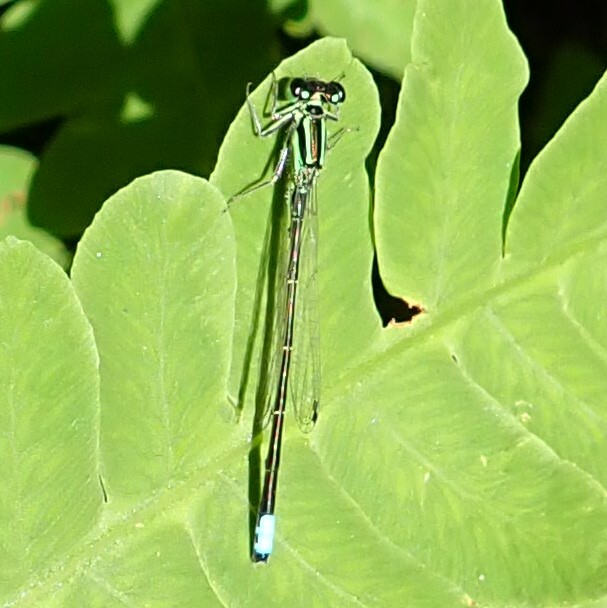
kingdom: Animalia
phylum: Arthropoda
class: Insecta
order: Odonata
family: Coenagrionidae
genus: Ischnura
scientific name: Ischnura verticalis
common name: Eastern forktail
